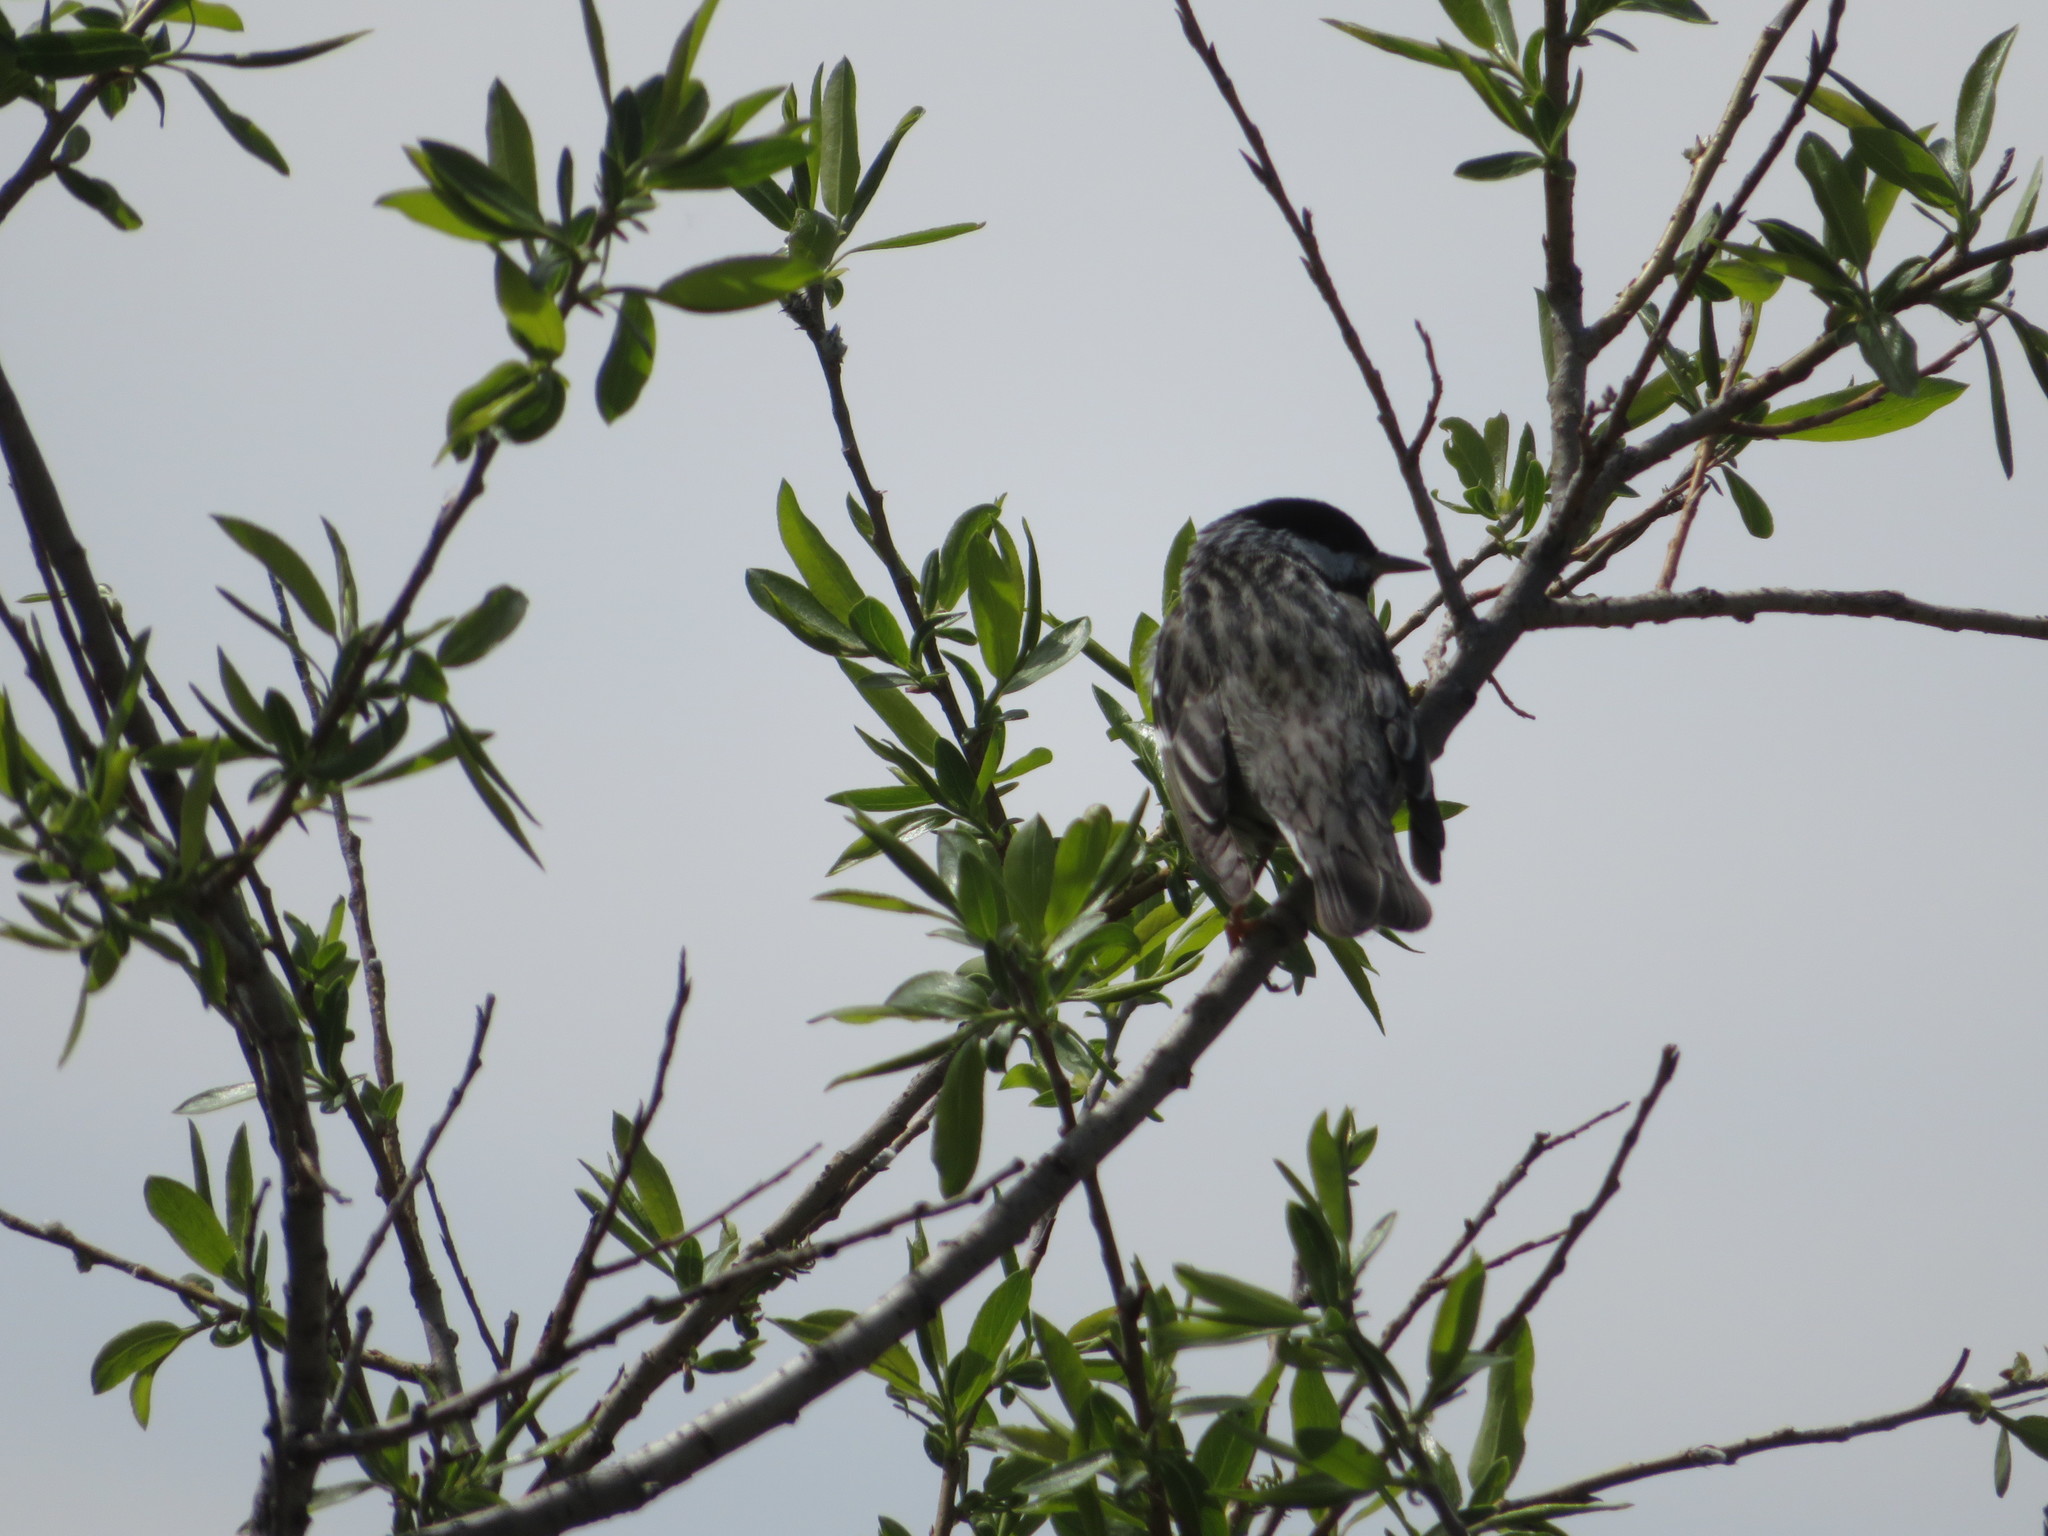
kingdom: Animalia
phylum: Chordata
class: Aves
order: Passeriformes
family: Parulidae
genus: Setophaga
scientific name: Setophaga striata
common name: Blackpoll warbler
